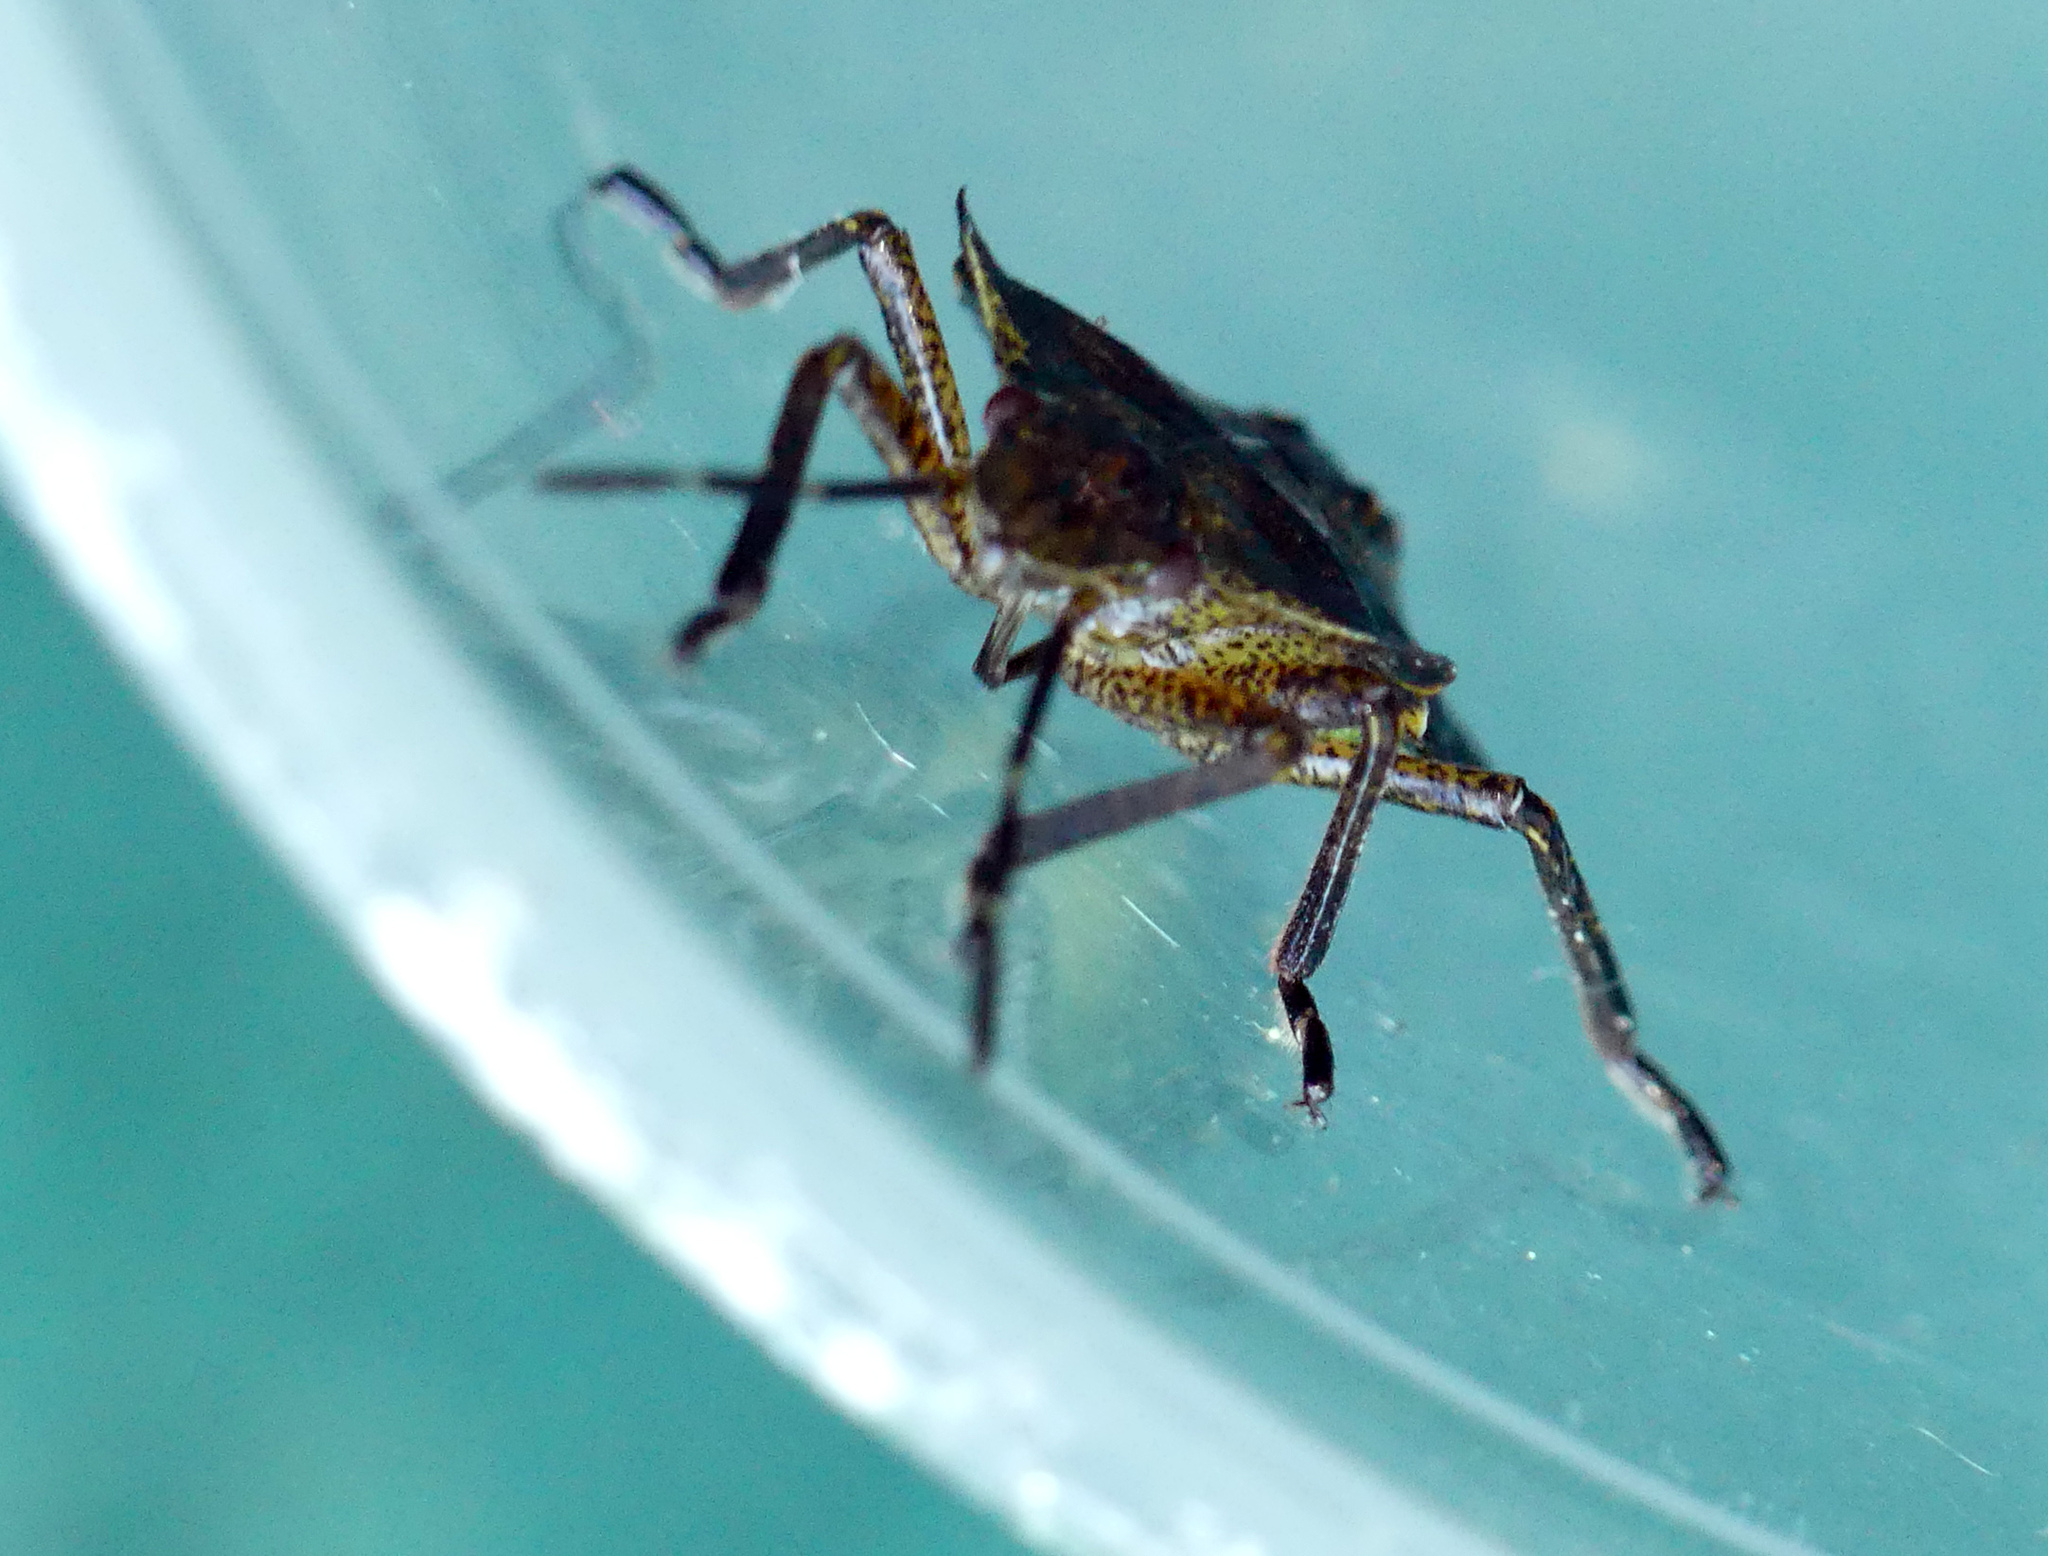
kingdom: Animalia
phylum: Arthropoda
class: Insecta
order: Hemiptera
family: Pentatomidae
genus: Pentatoma
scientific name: Pentatoma rufipes
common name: Forest bug
